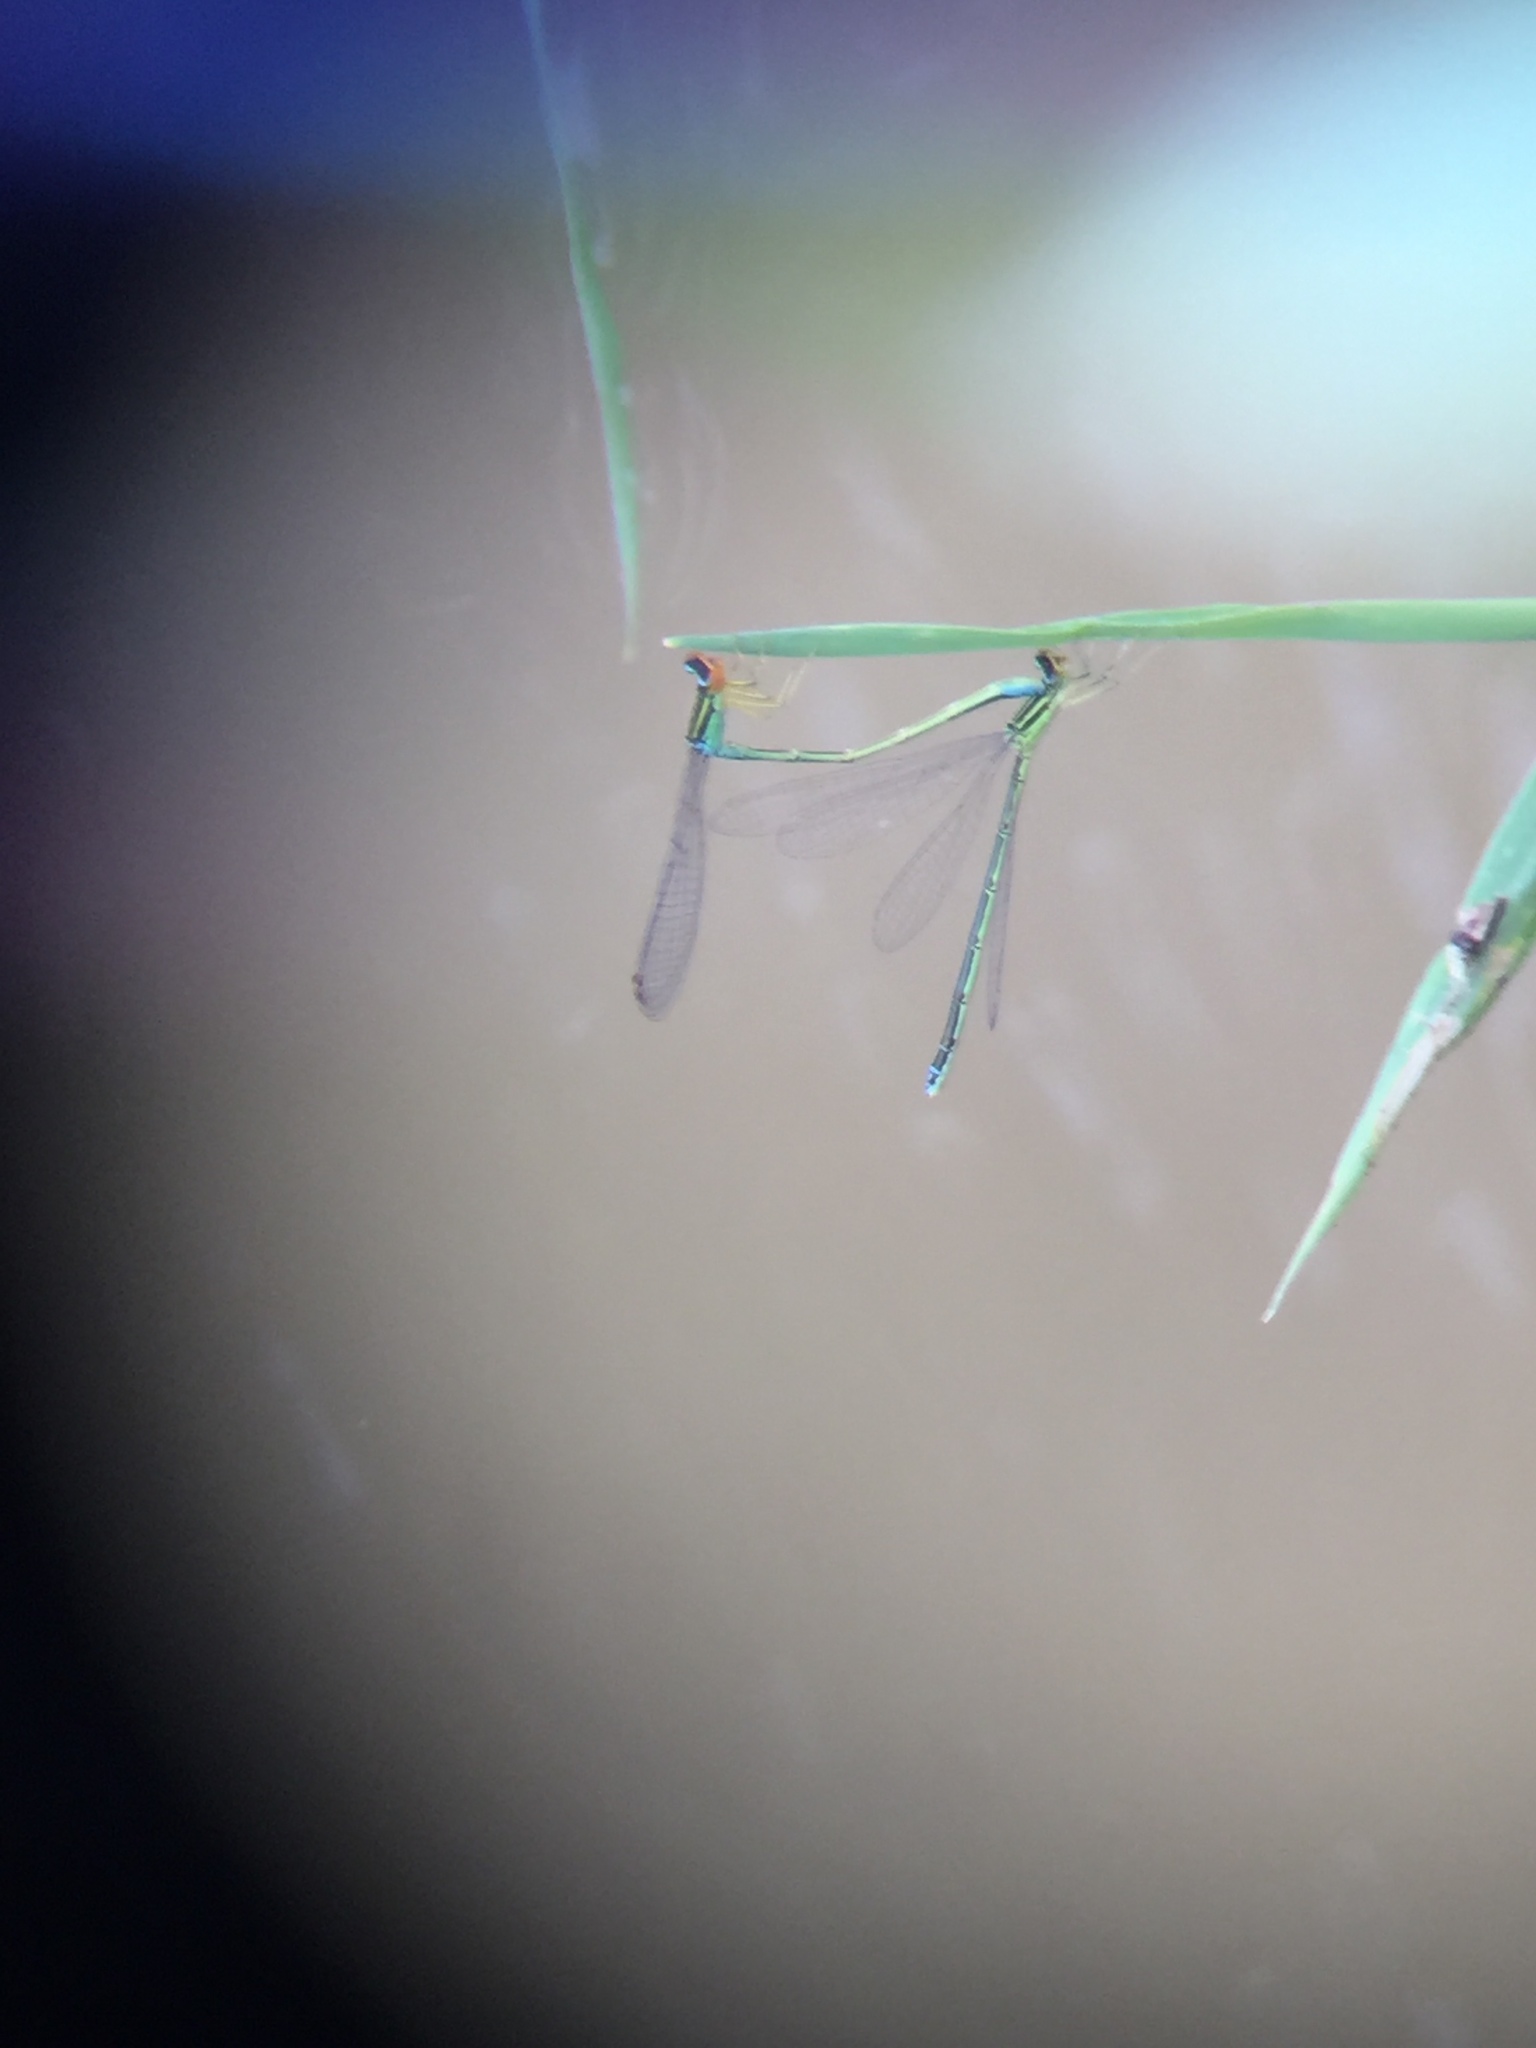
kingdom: Animalia
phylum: Arthropoda
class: Insecta
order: Odonata
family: Coenagrionidae
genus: Enallagma
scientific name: Enallagma antennatum
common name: Rainbow bluet
